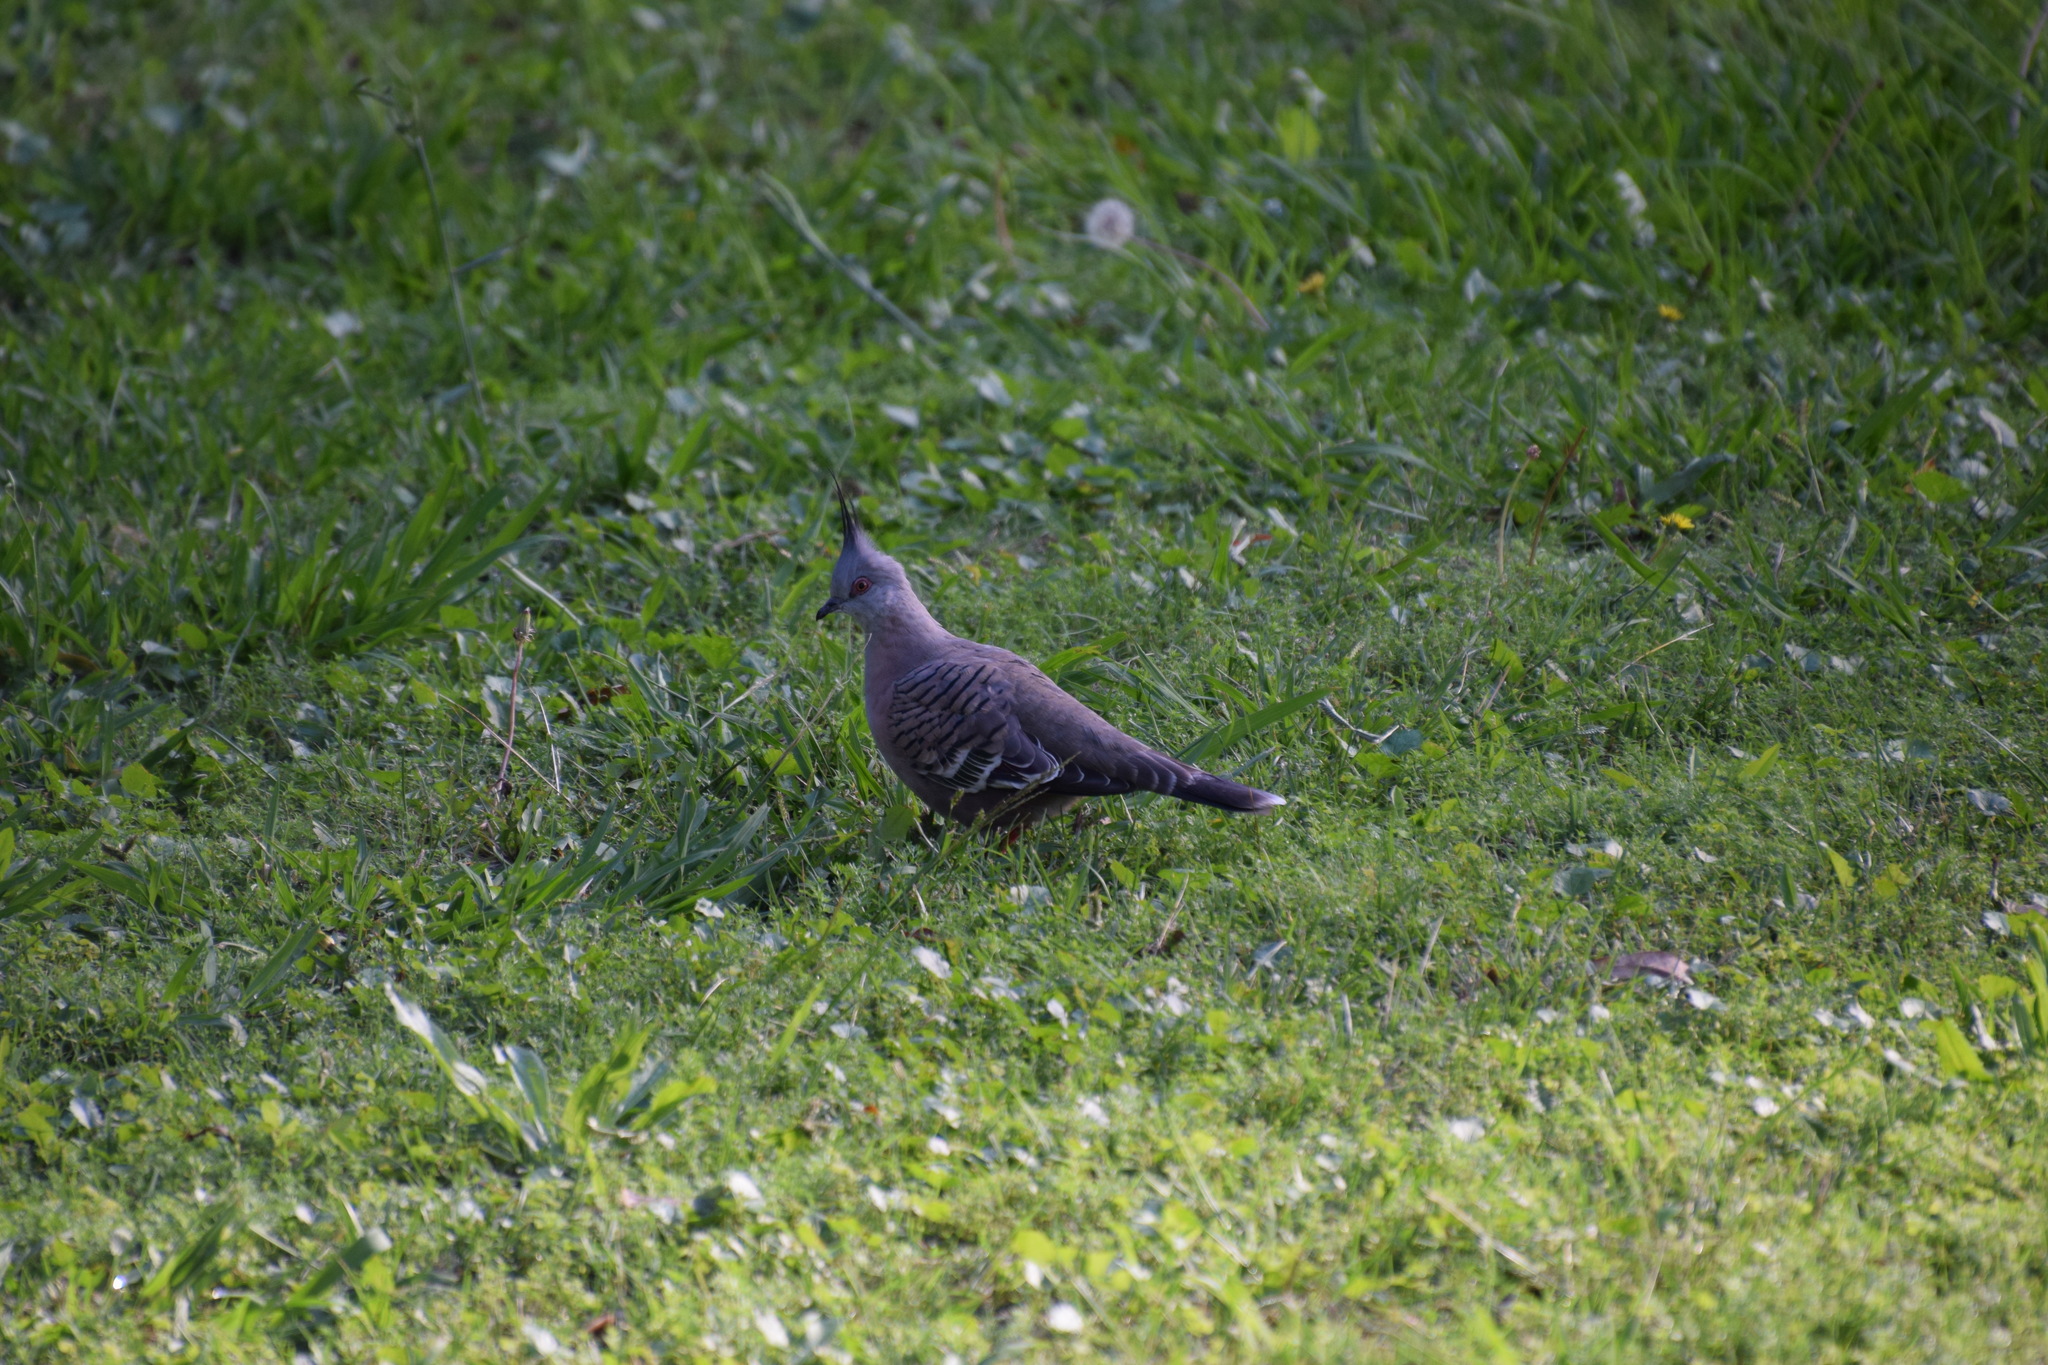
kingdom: Animalia
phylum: Chordata
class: Aves
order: Columbiformes
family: Columbidae
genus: Ocyphaps
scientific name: Ocyphaps lophotes
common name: Crested pigeon
